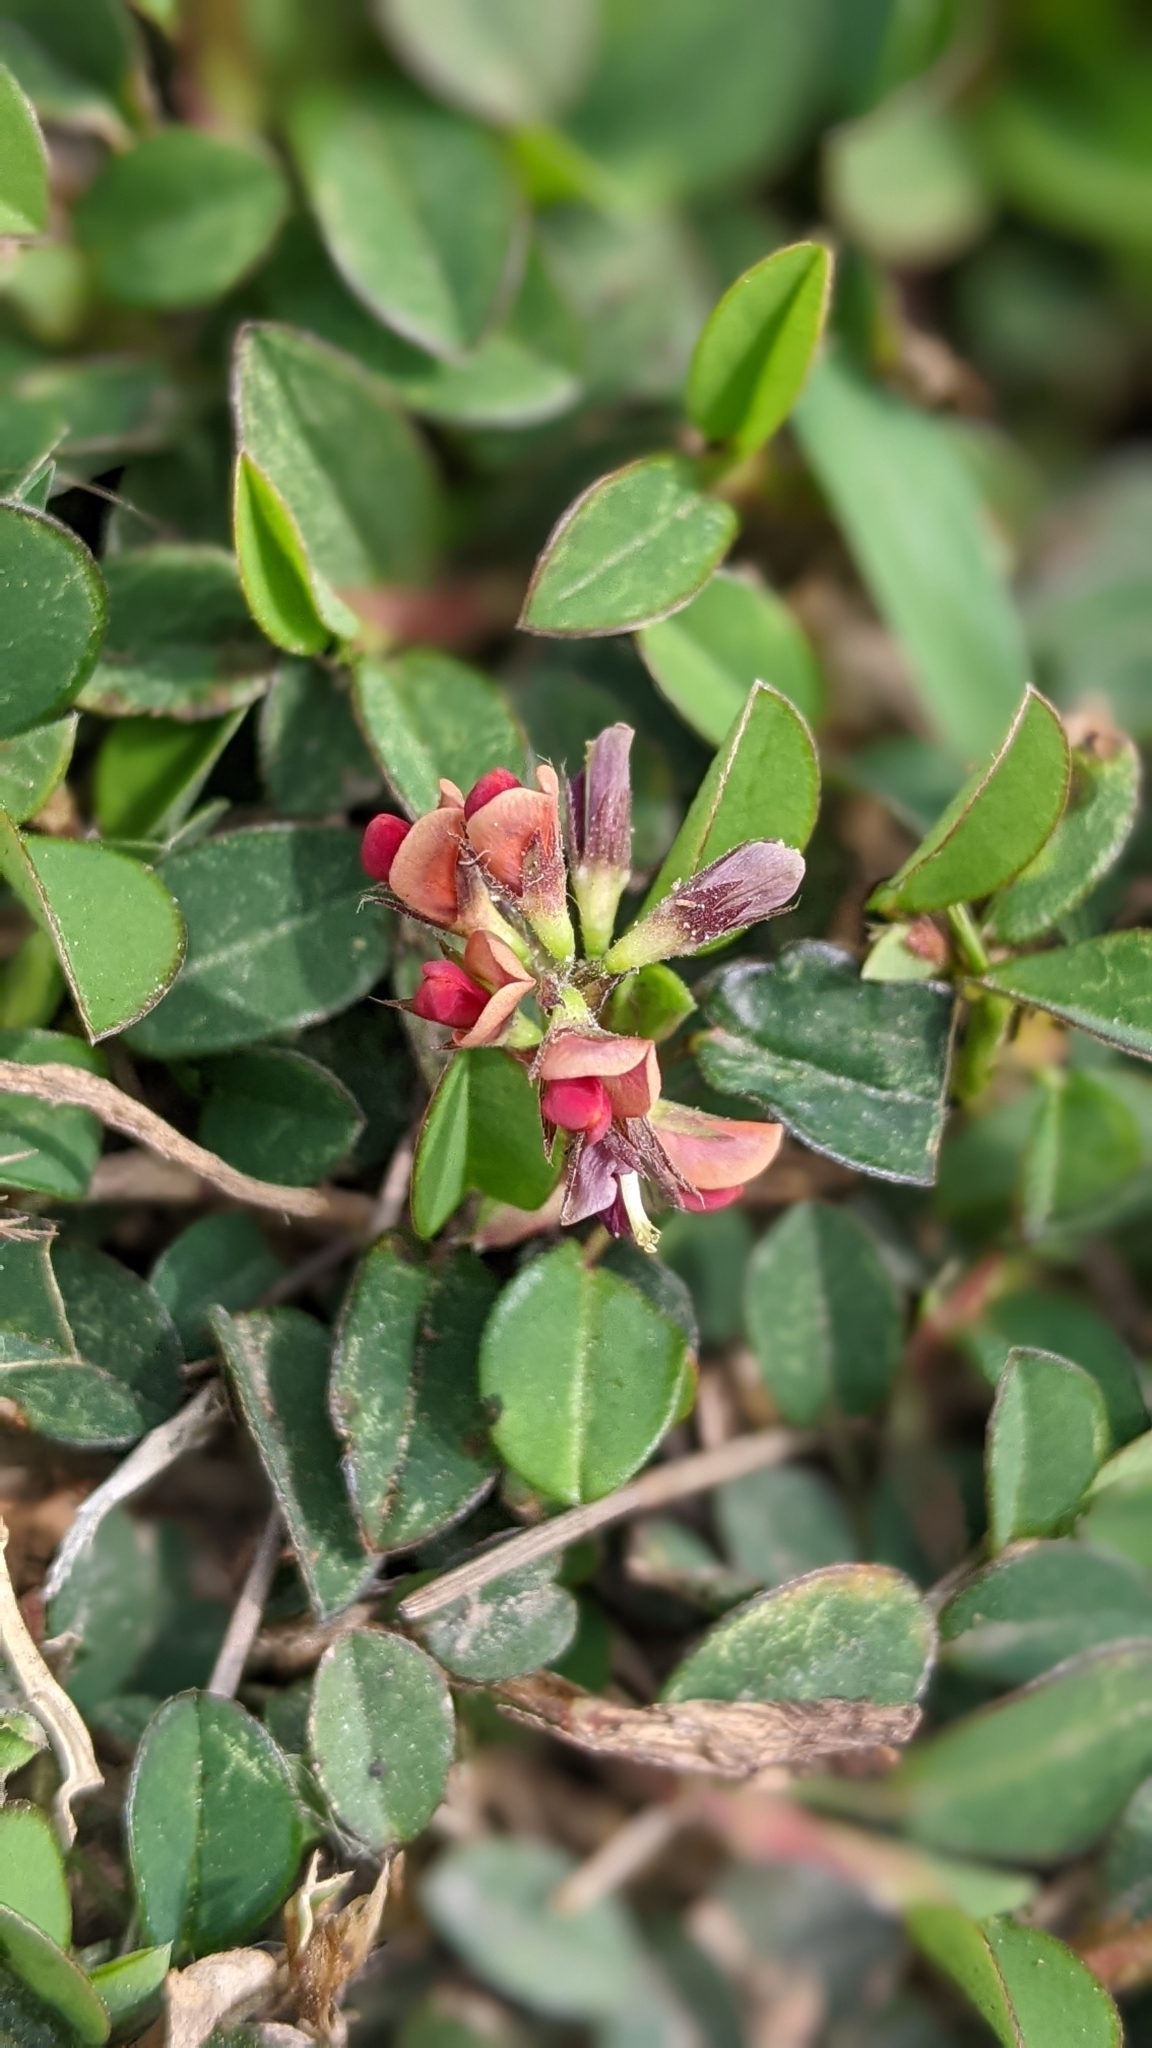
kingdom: Plantae
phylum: Tracheophyta
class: Magnoliopsida
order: Fabales
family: Fabaceae
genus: Alysicarpus
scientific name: Alysicarpus vaginalis
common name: White moneywort
